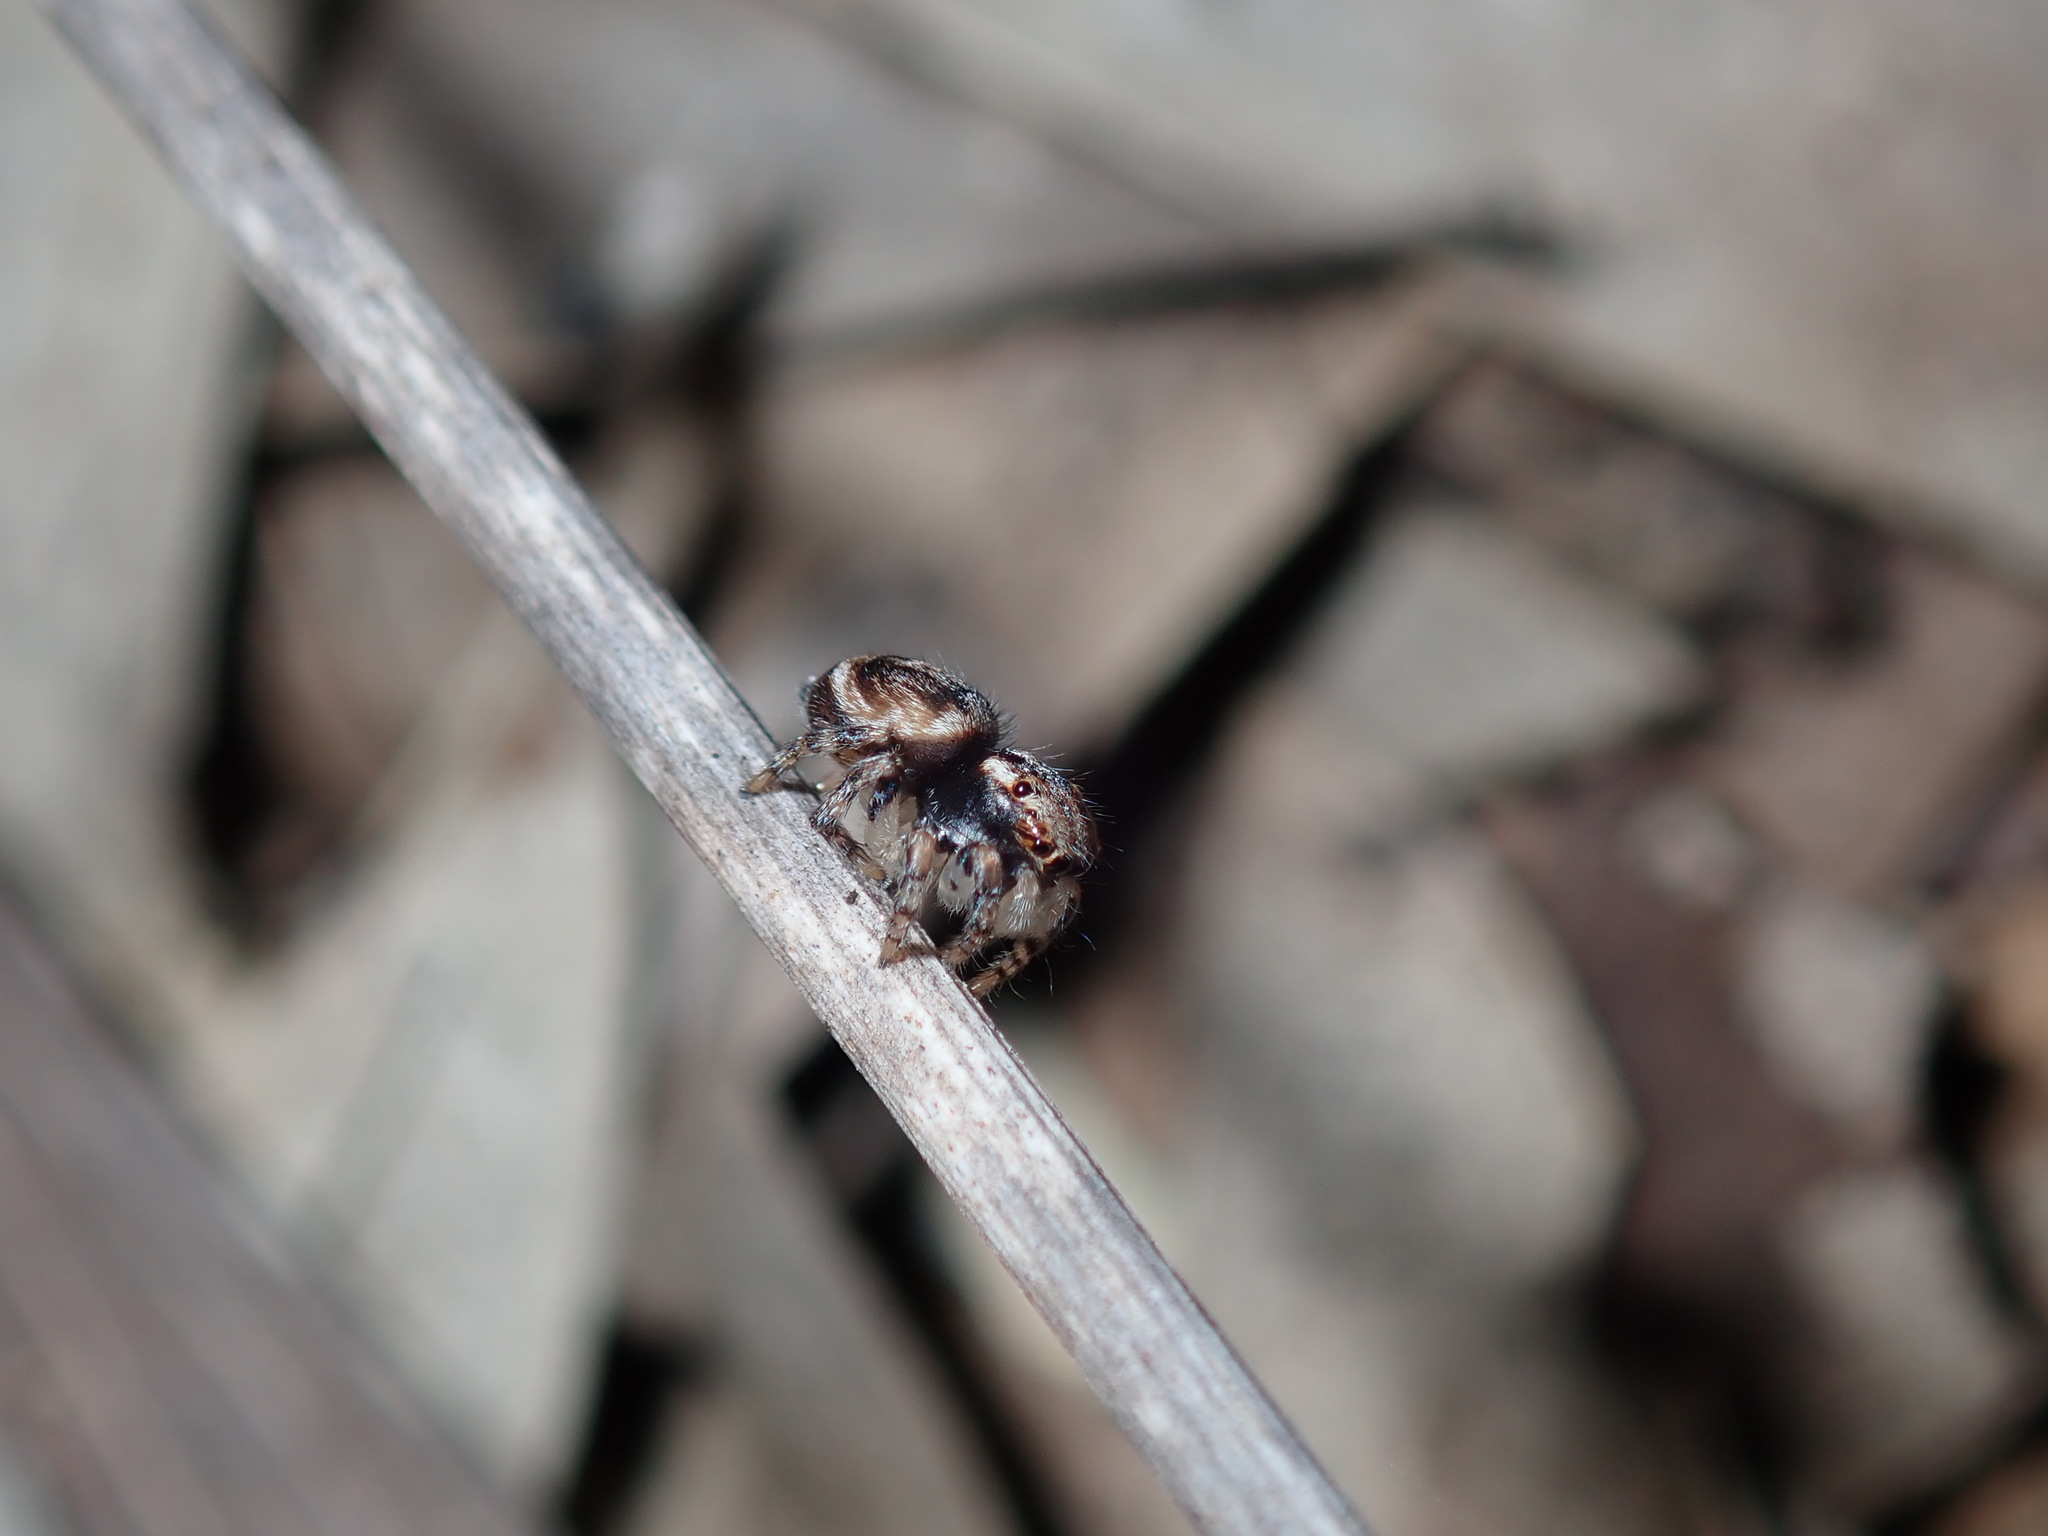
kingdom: Animalia
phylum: Arthropoda
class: Arachnida
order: Araneae
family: Salticidae
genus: Maratus
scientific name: Maratus volans
